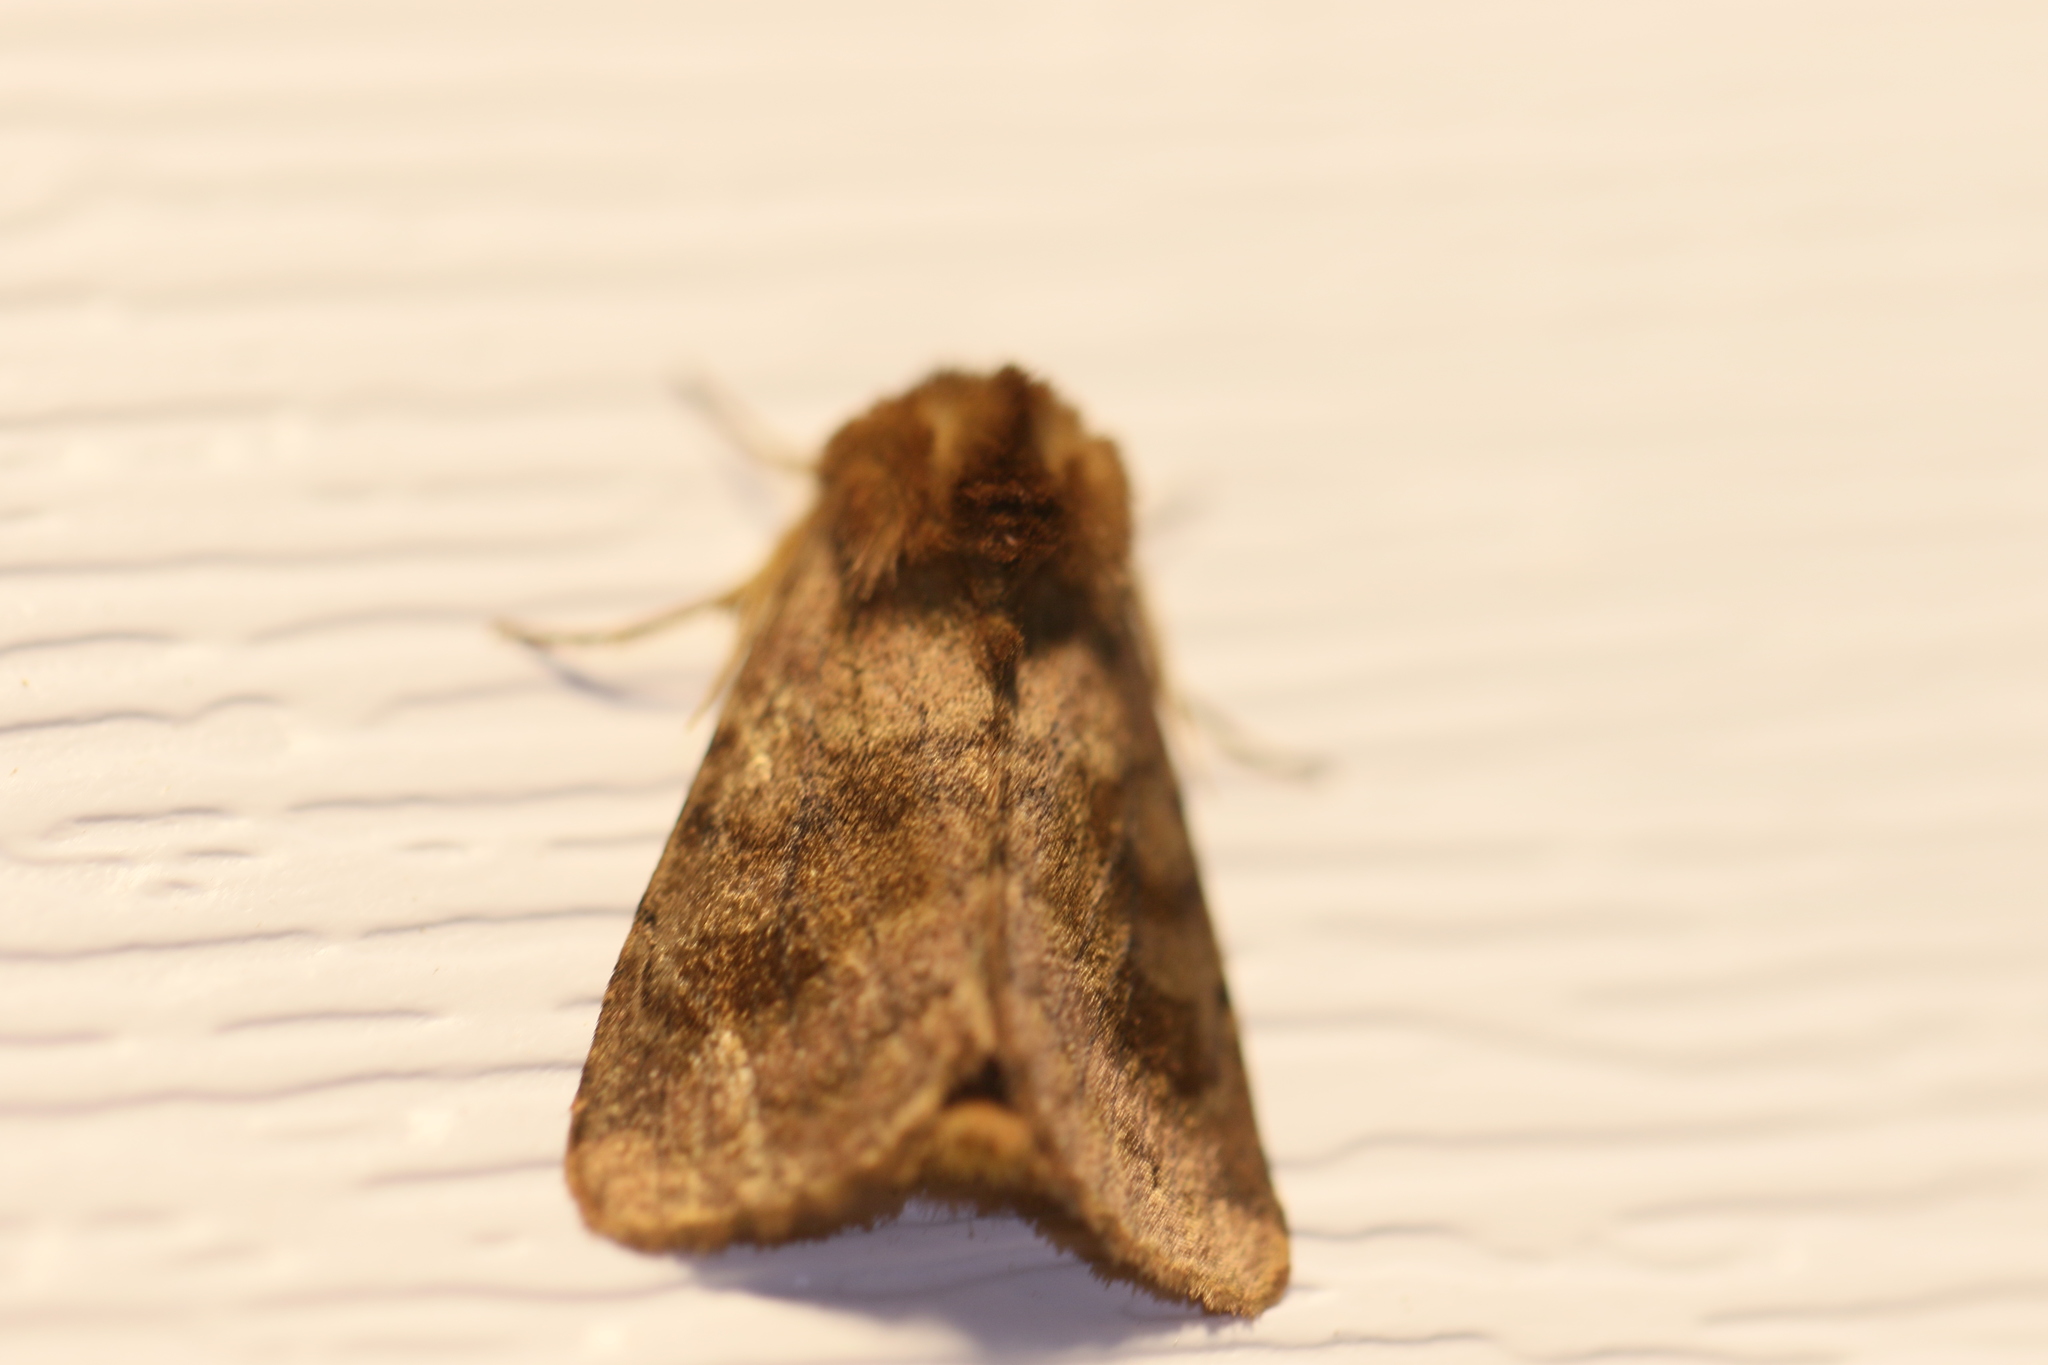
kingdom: Animalia
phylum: Arthropoda
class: Insecta
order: Lepidoptera
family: Noctuidae
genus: Nephelodes
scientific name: Nephelodes minians
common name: Bronzed cutworm
